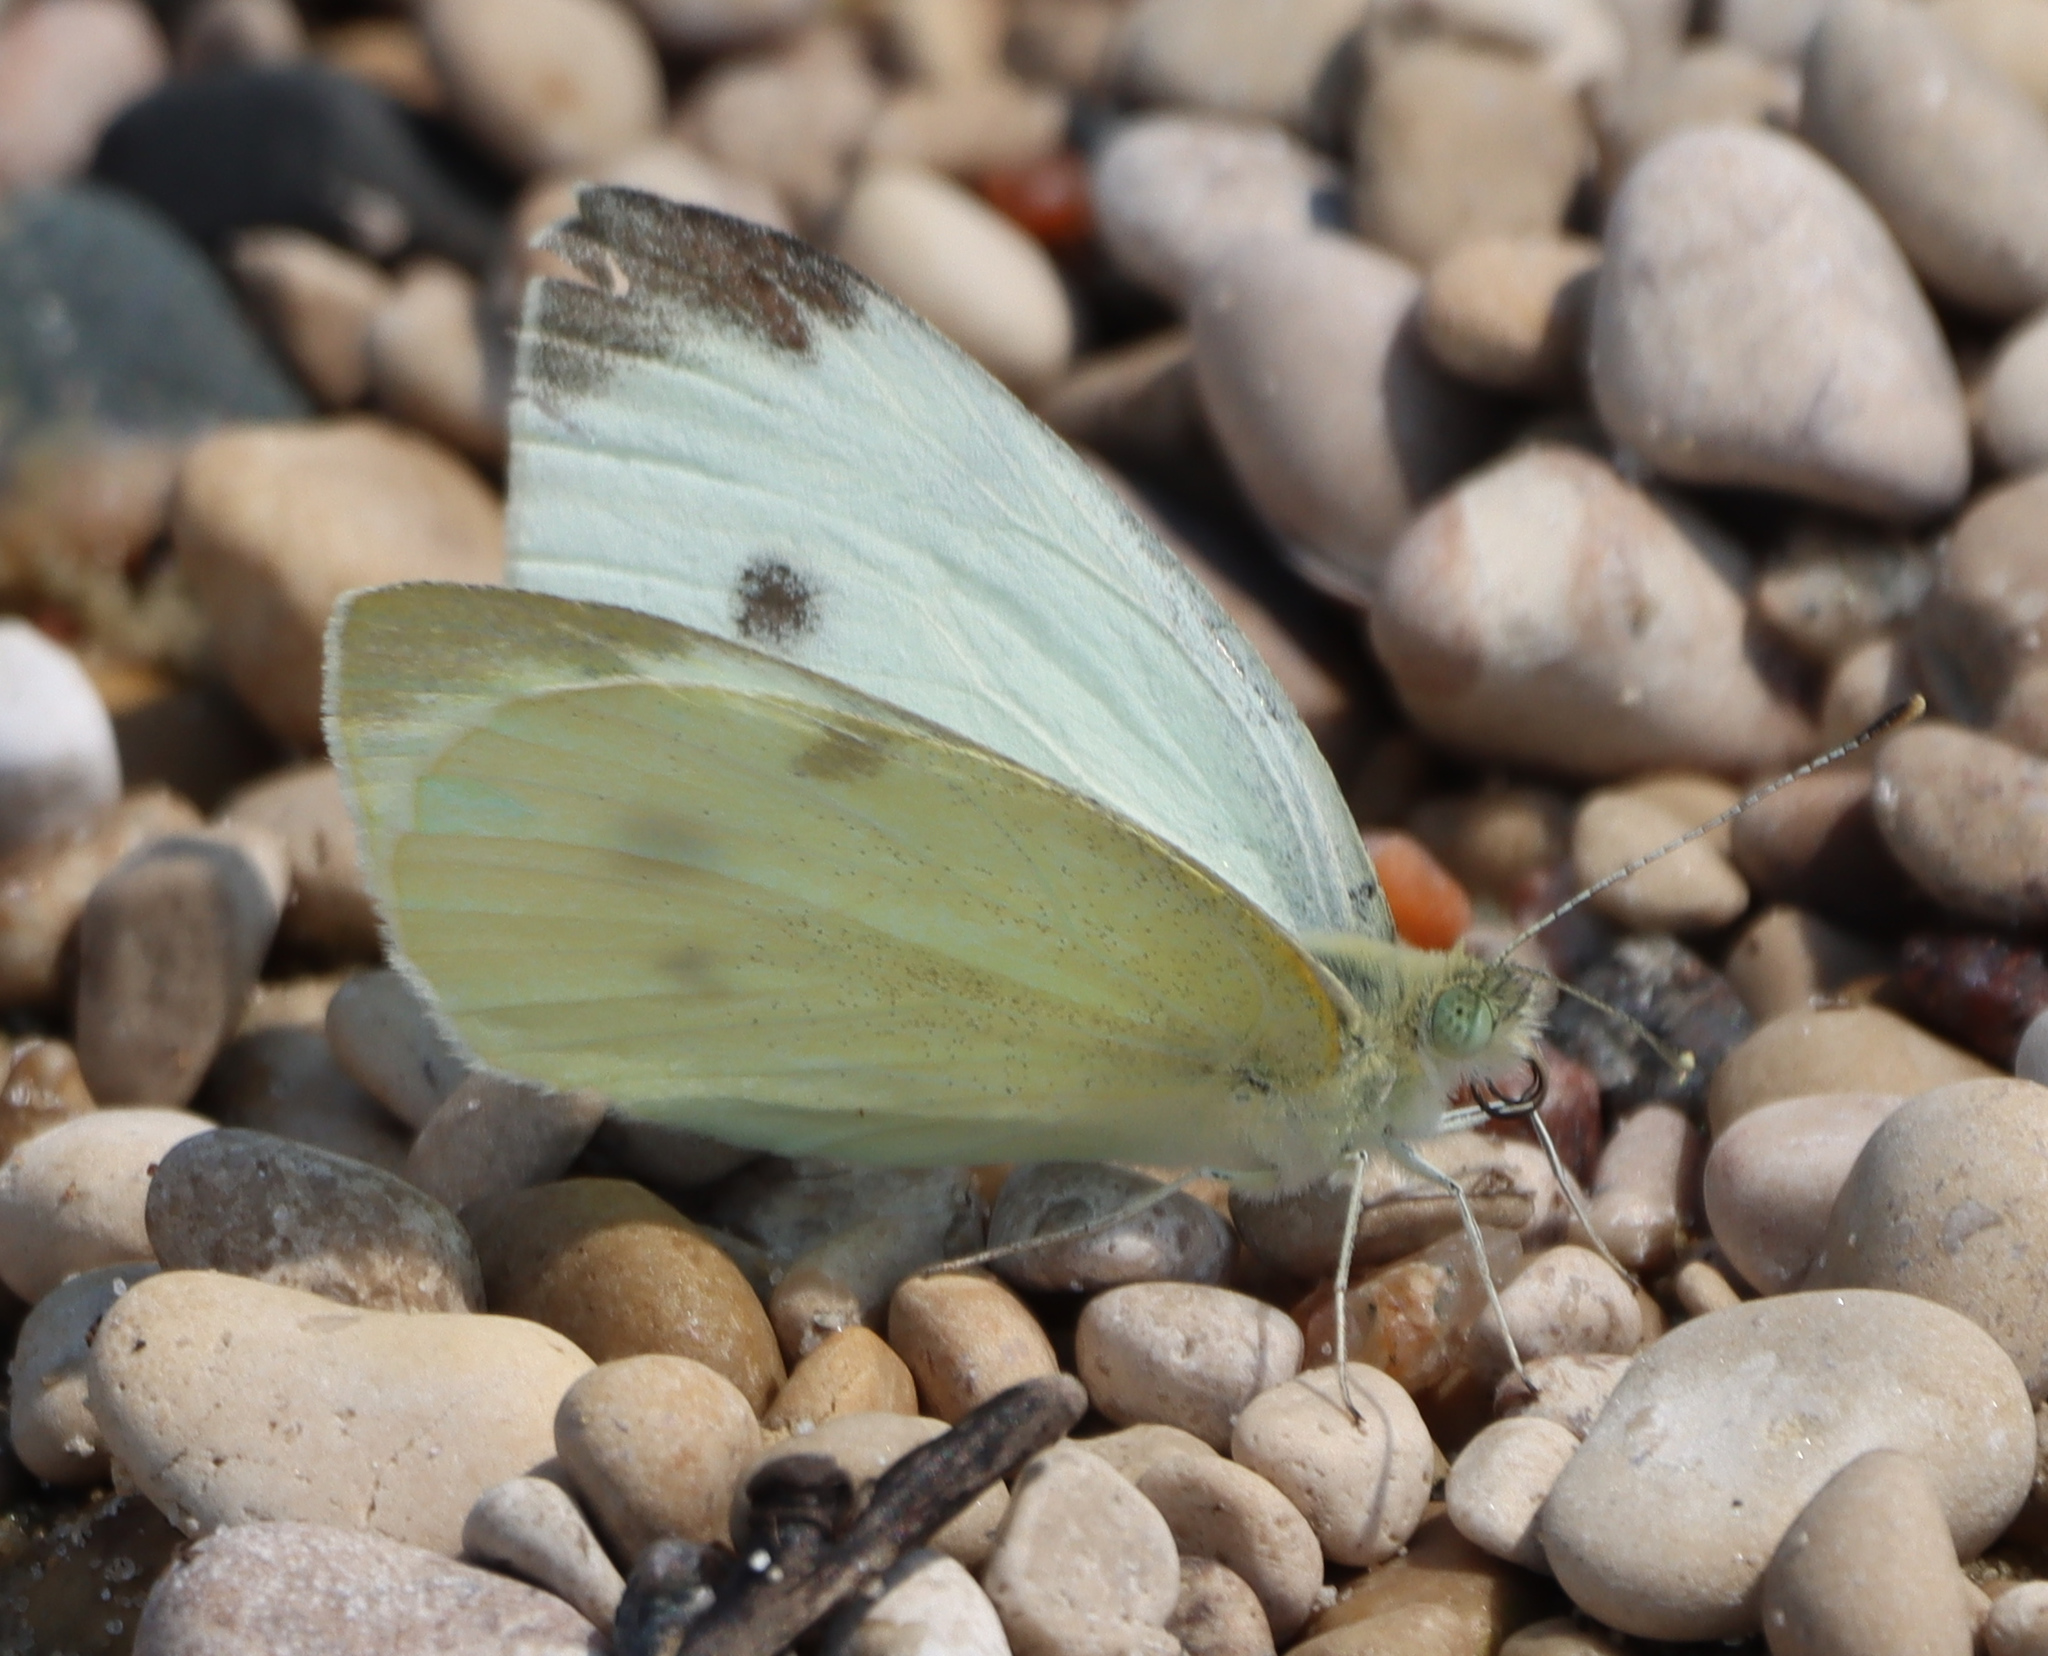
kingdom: Animalia
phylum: Arthropoda
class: Insecta
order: Lepidoptera
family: Pieridae
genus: Pieris
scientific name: Pieris rapae
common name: Small white
